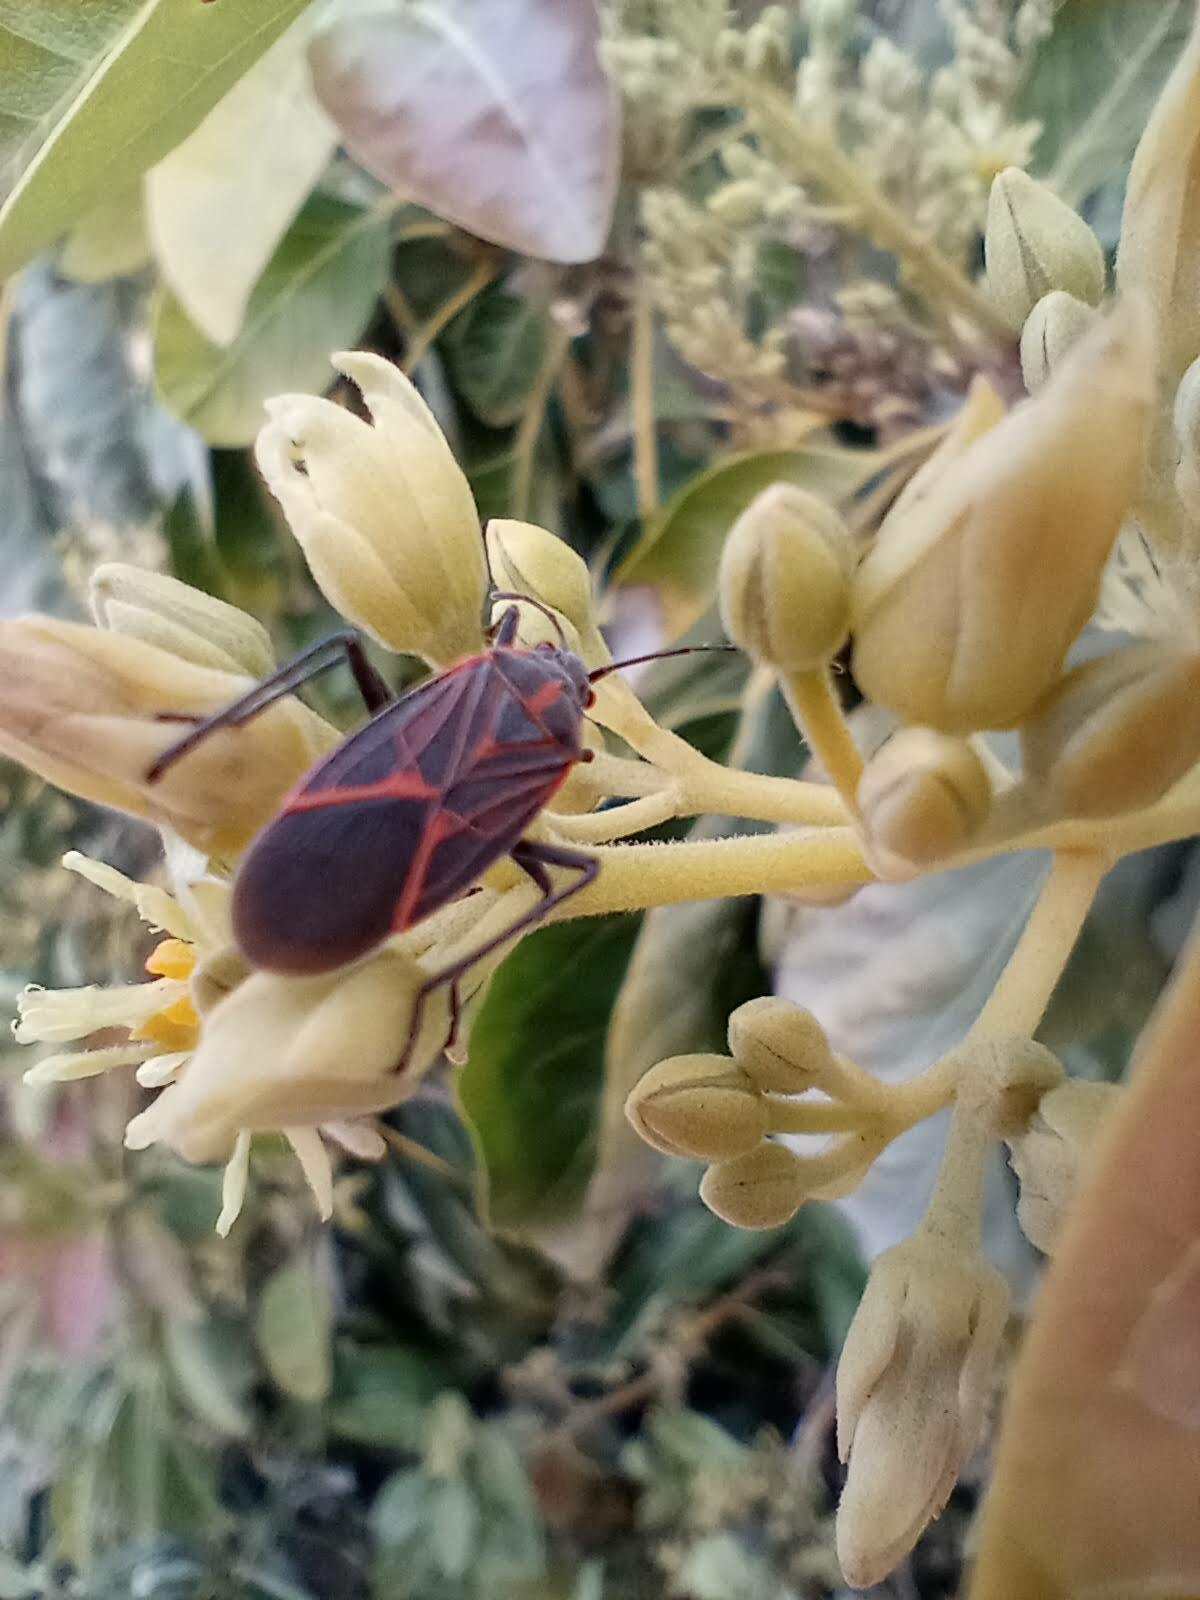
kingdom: Animalia
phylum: Arthropoda
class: Insecta
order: Hemiptera
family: Rhopalidae
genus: Boisea
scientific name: Boisea rubrolineata
